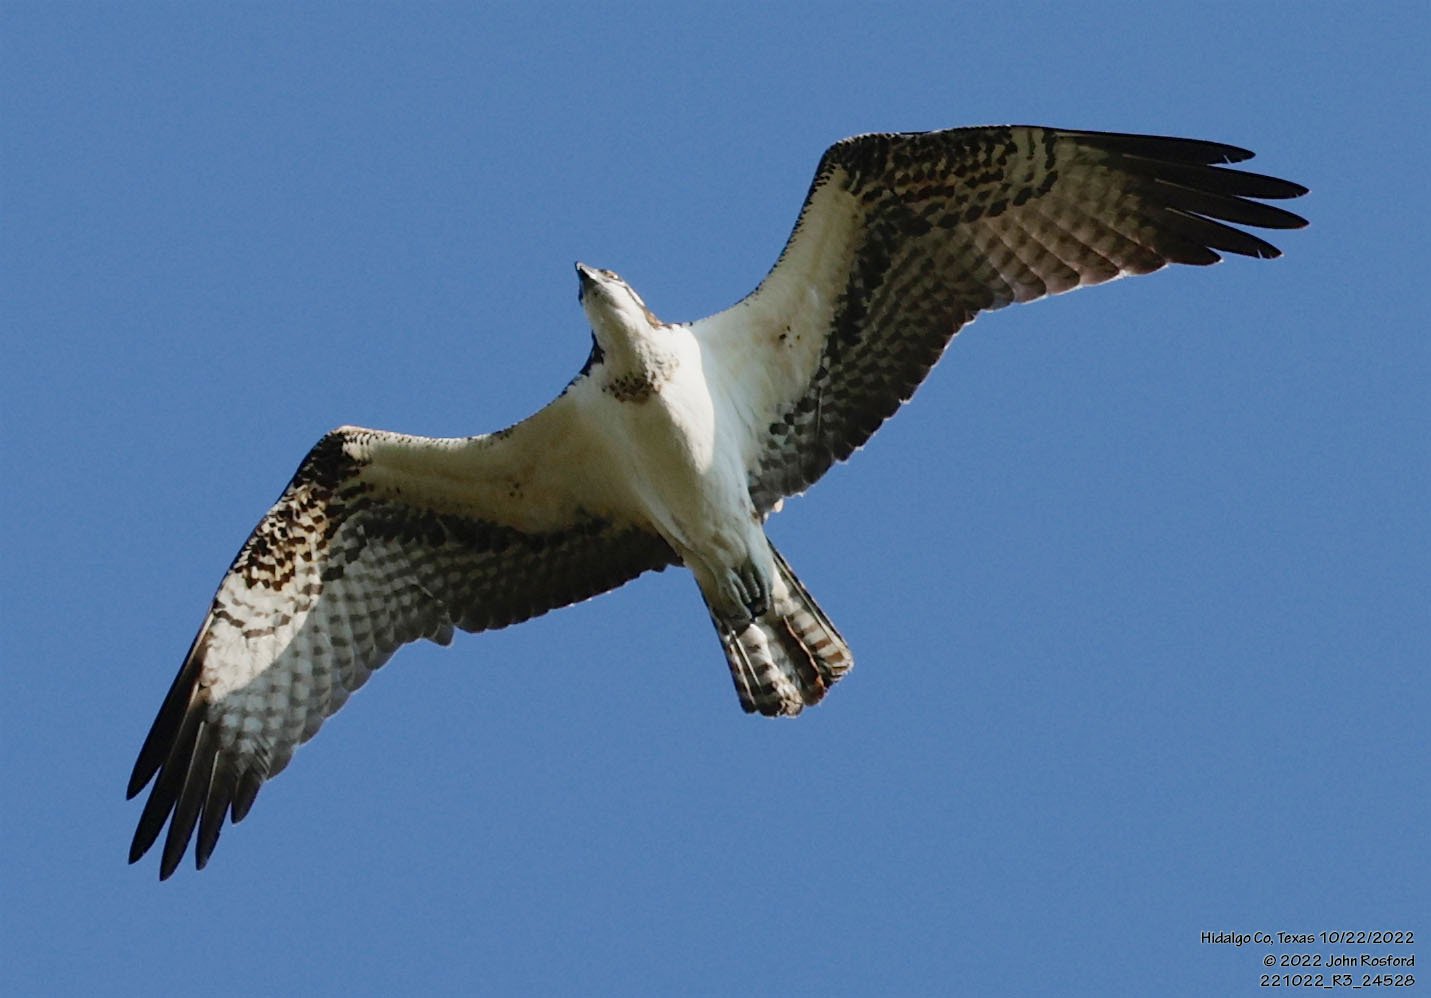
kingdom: Animalia
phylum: Chordata
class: Aves
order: Accipitriformes
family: Pandionidae
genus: Pandion
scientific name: Pandion haliaetus
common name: Osprey
